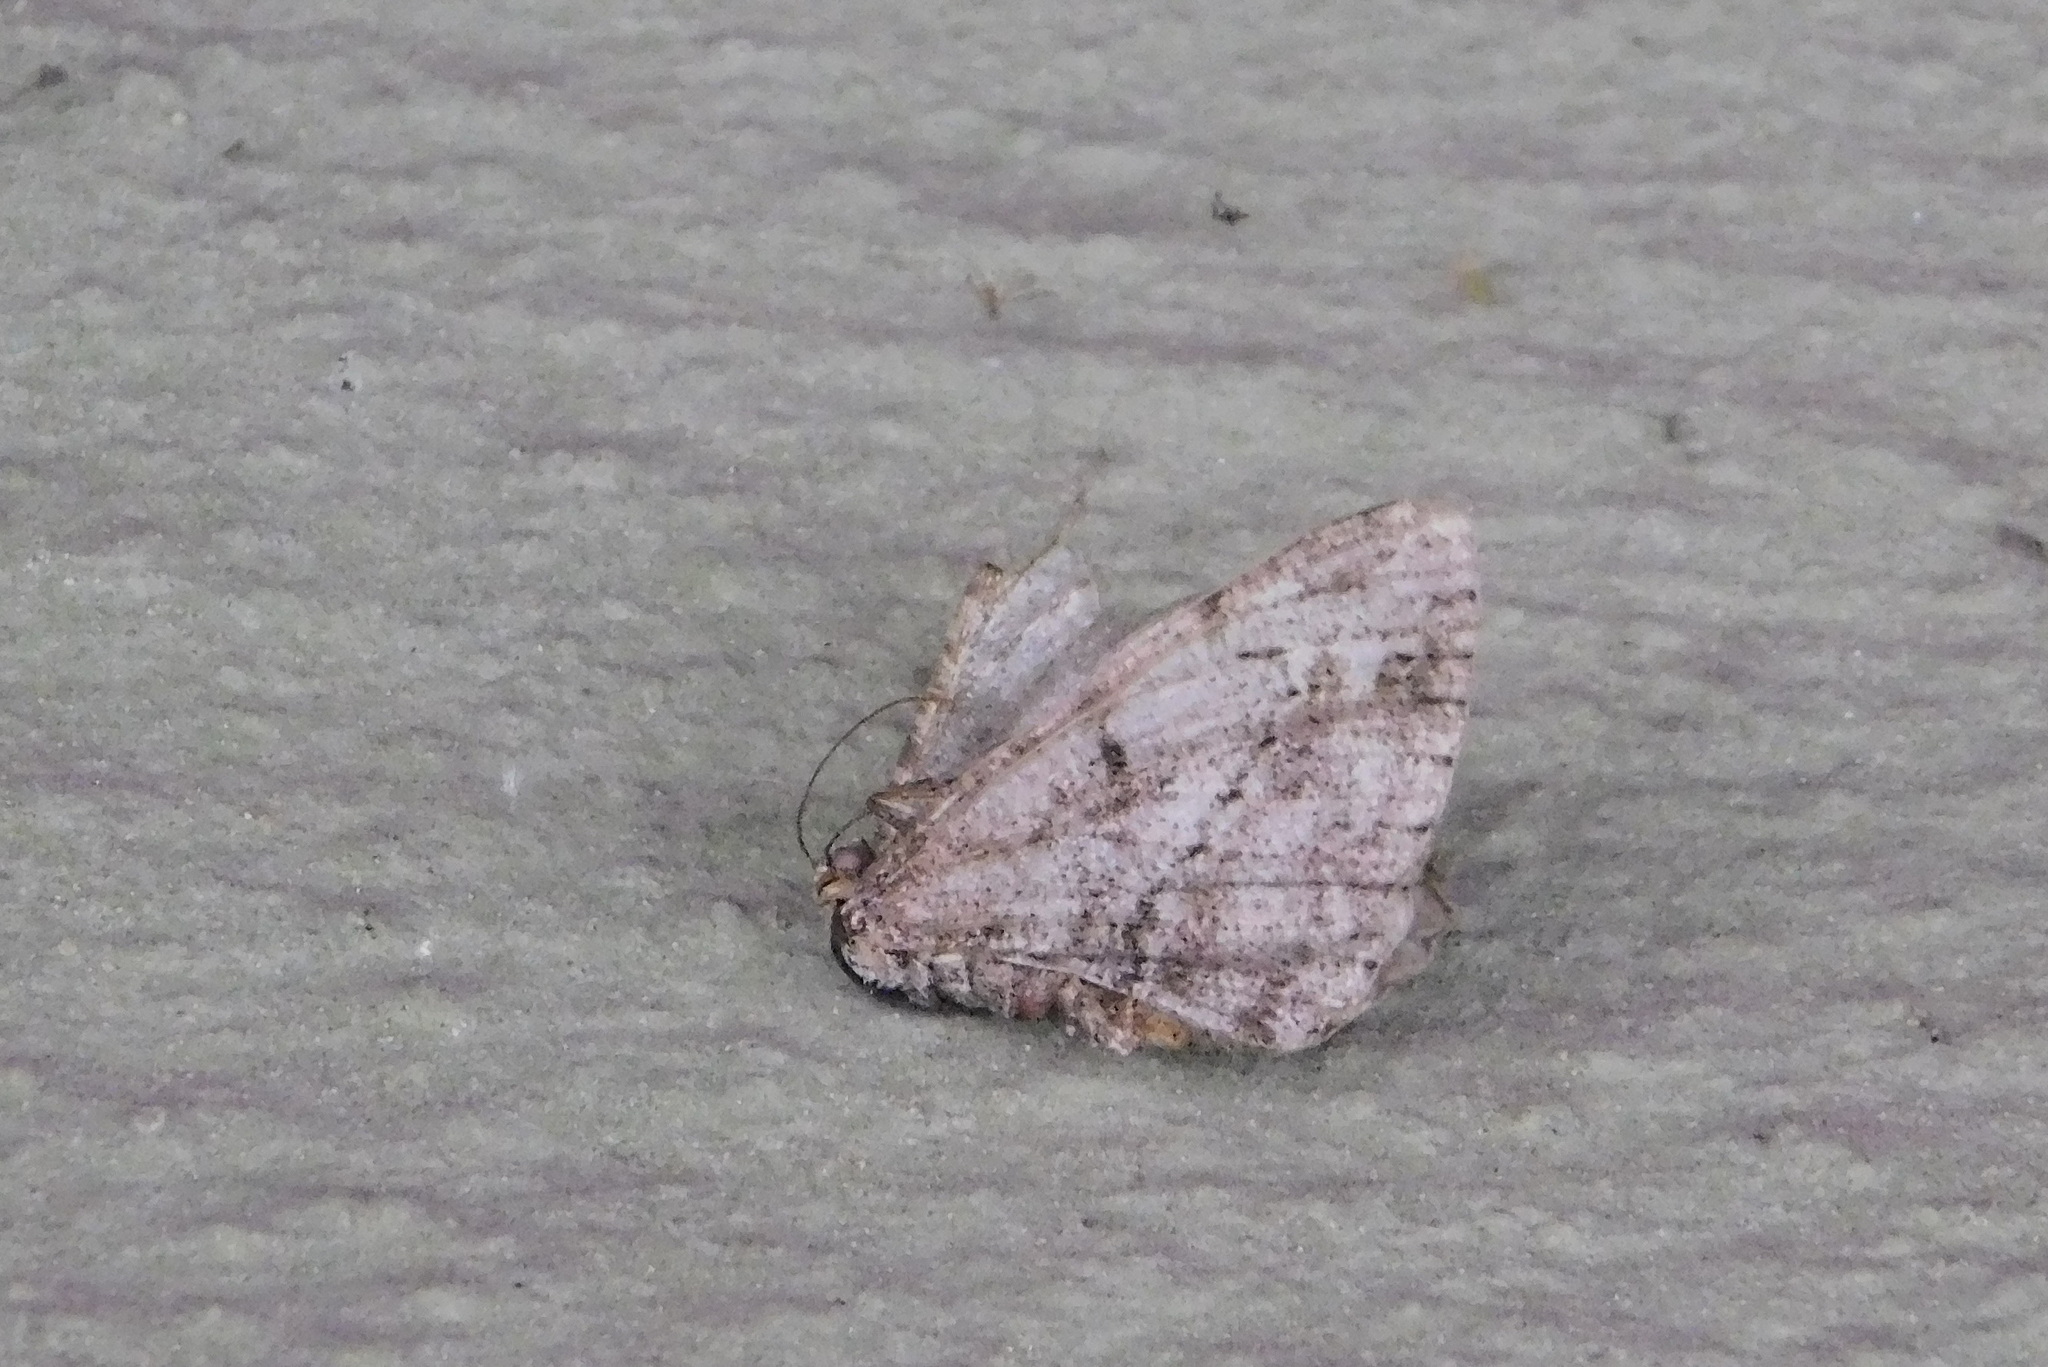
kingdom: Animalia
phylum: Arthropoda
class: Insecta
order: Lepidoptera
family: Geometridae
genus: Peribatodes
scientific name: Peribatodes rhomboidaria
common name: Willow beauty
